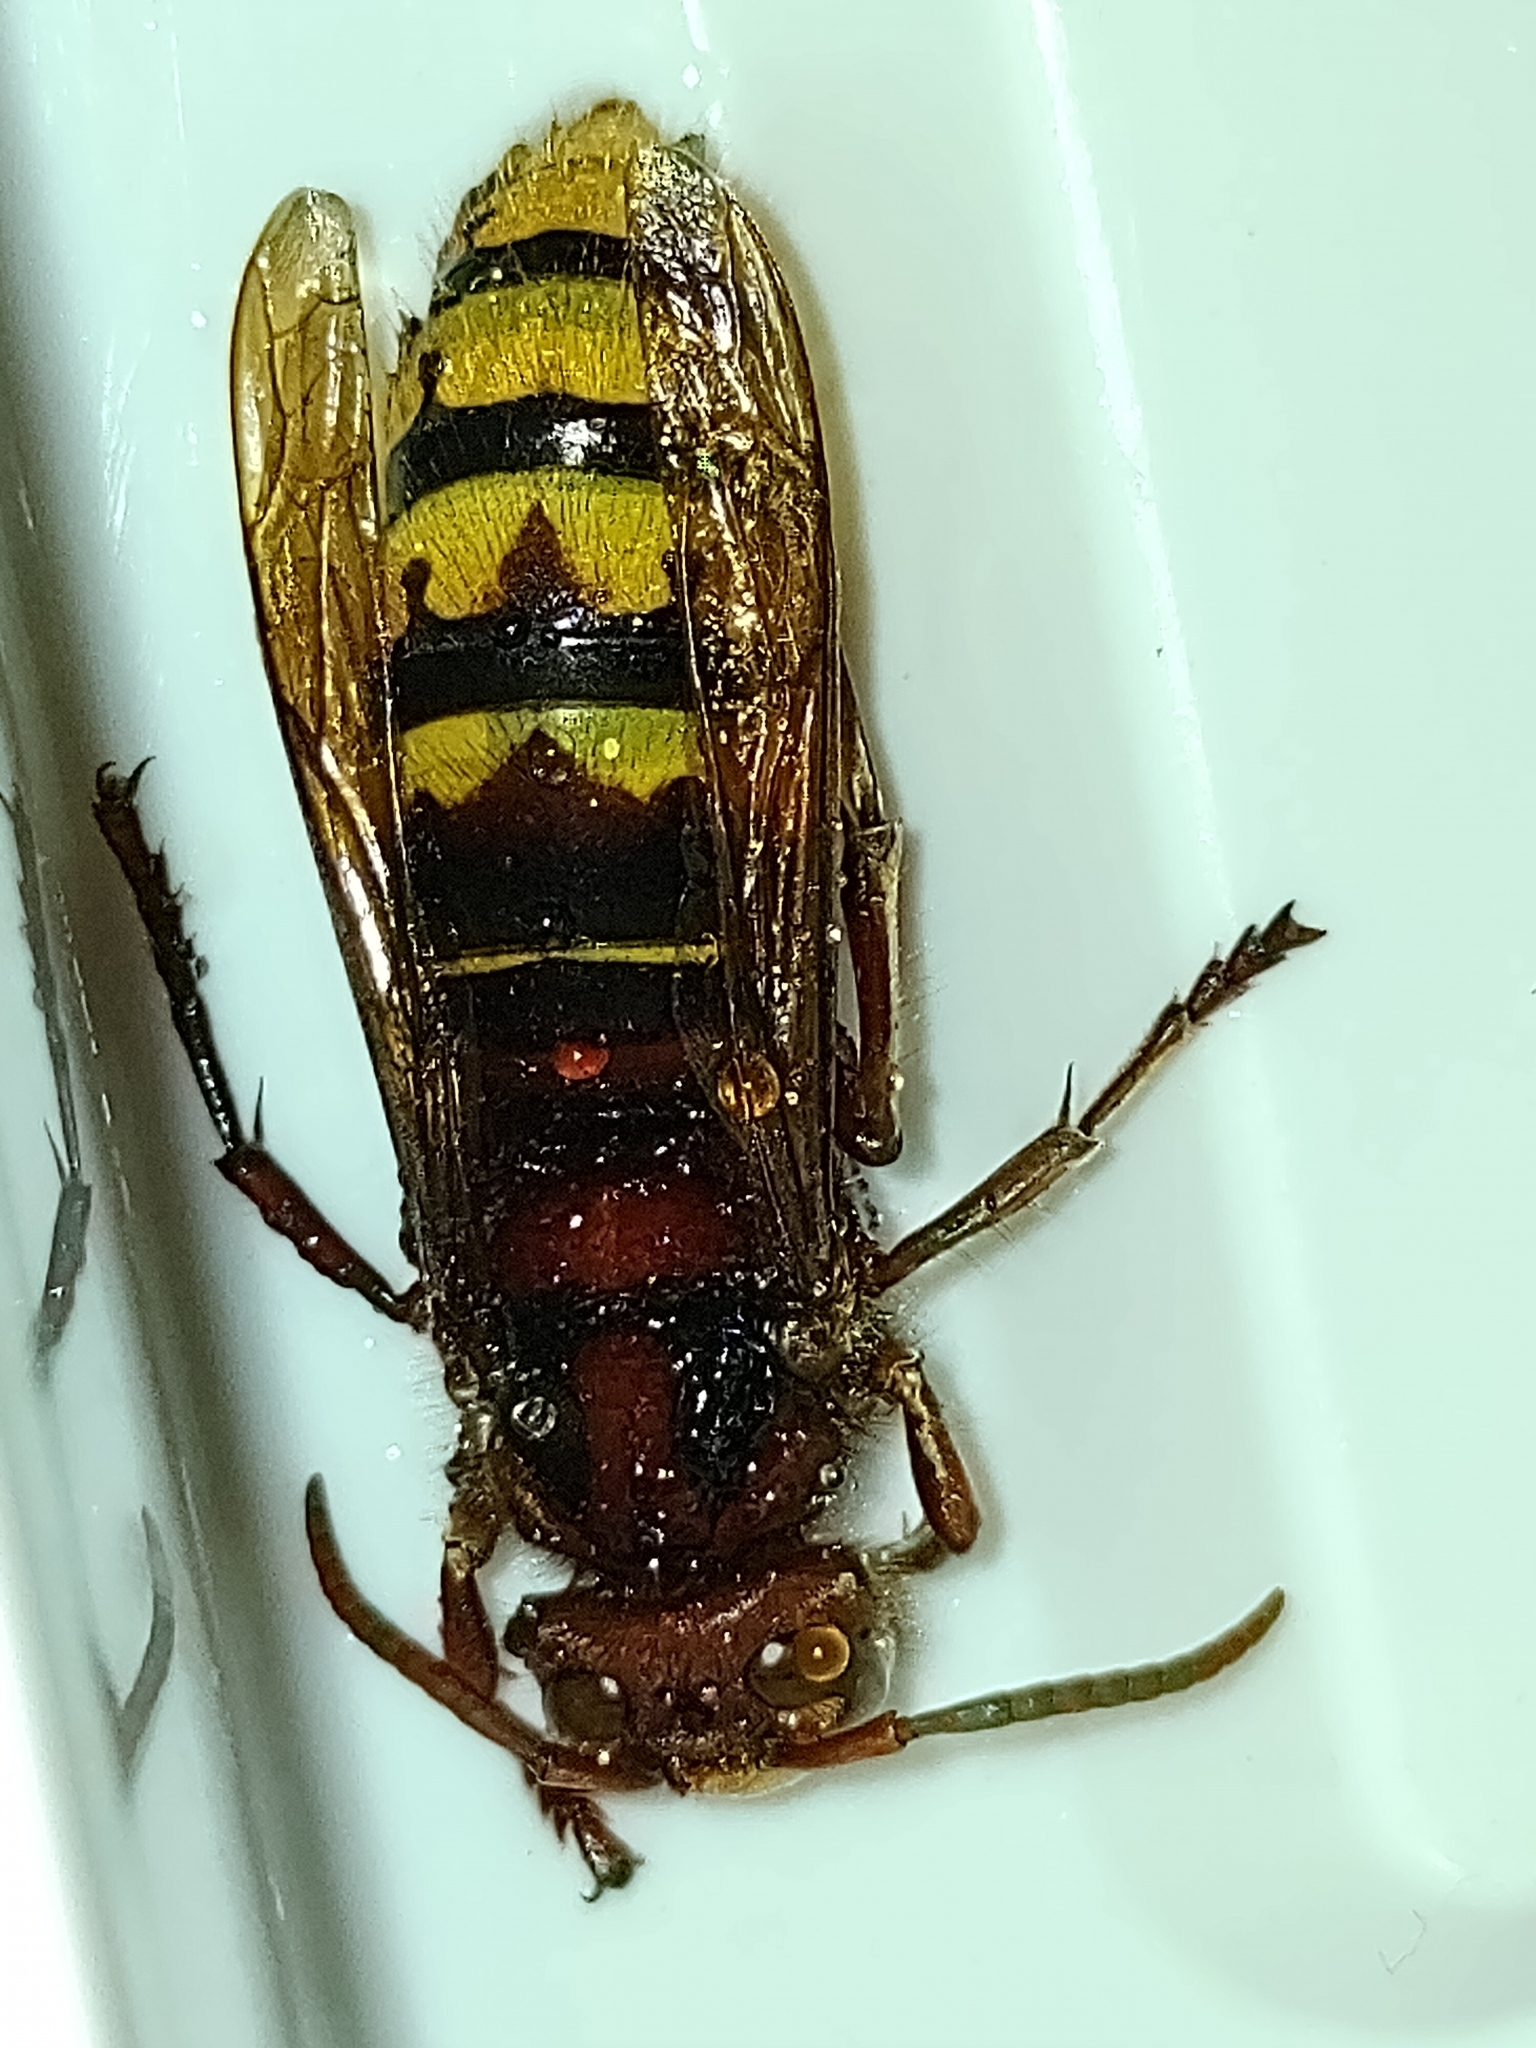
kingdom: Animalia
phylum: Arthropoda
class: Insecta
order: Hymenoptera
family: Vespidae
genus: Vespa
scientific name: Vespa crabro
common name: Hornet
